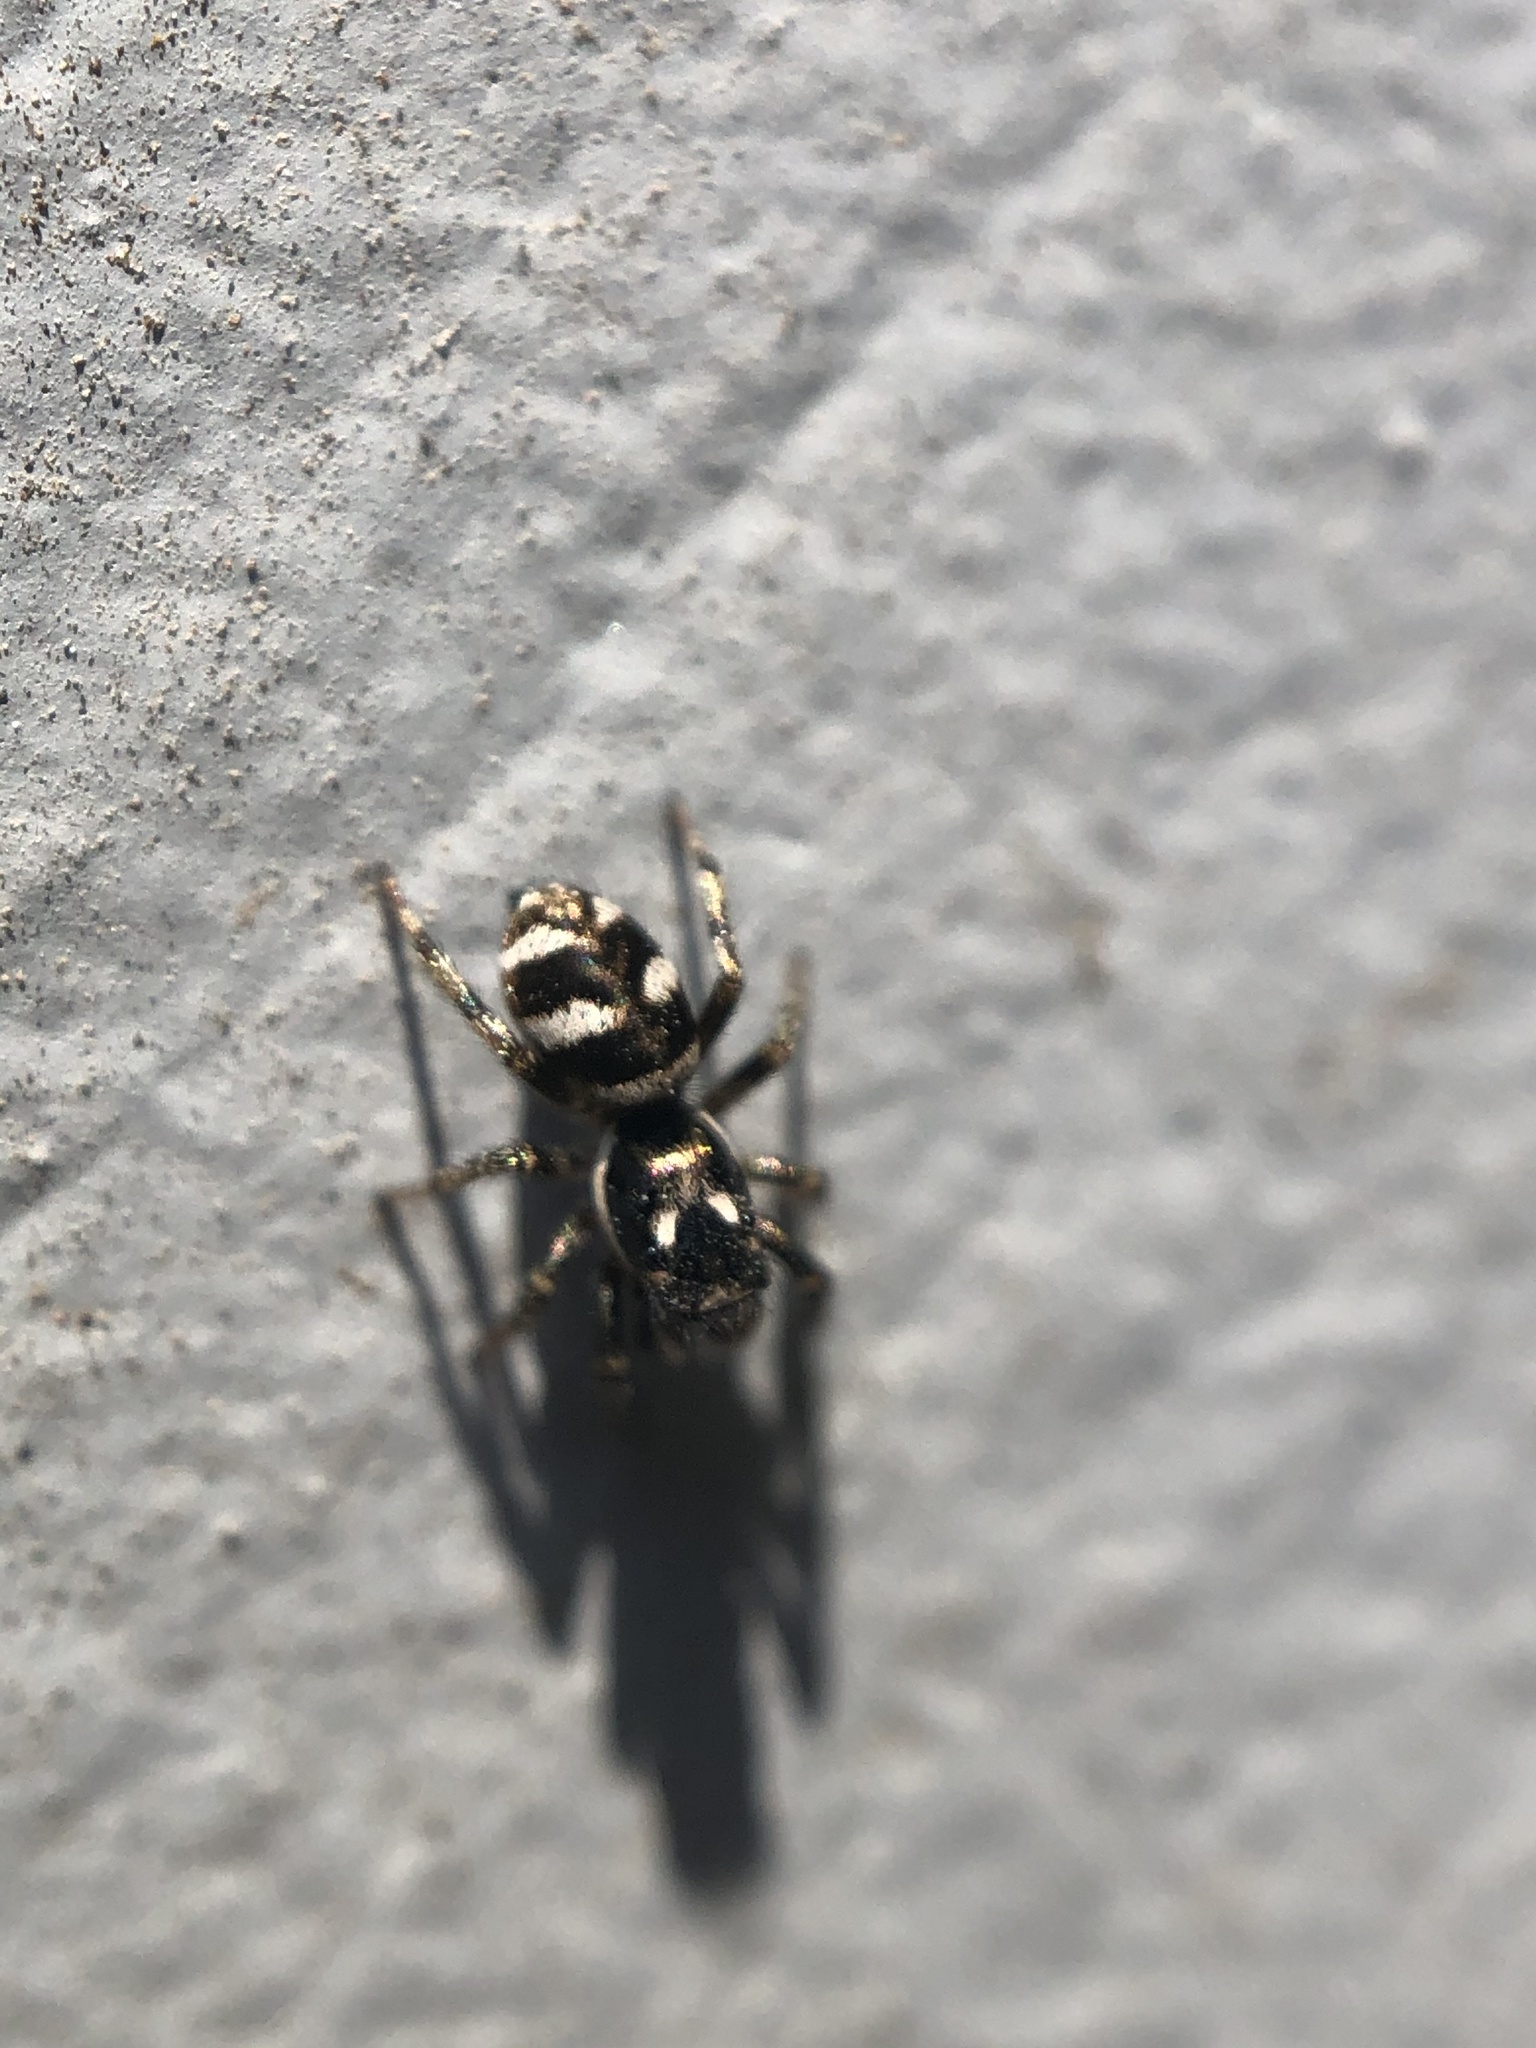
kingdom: Animalia
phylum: Arthropoda
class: Arachnida
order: Araneae
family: Salticidae
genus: Salticus
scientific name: Salticus scenicus
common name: Zebra jumper
